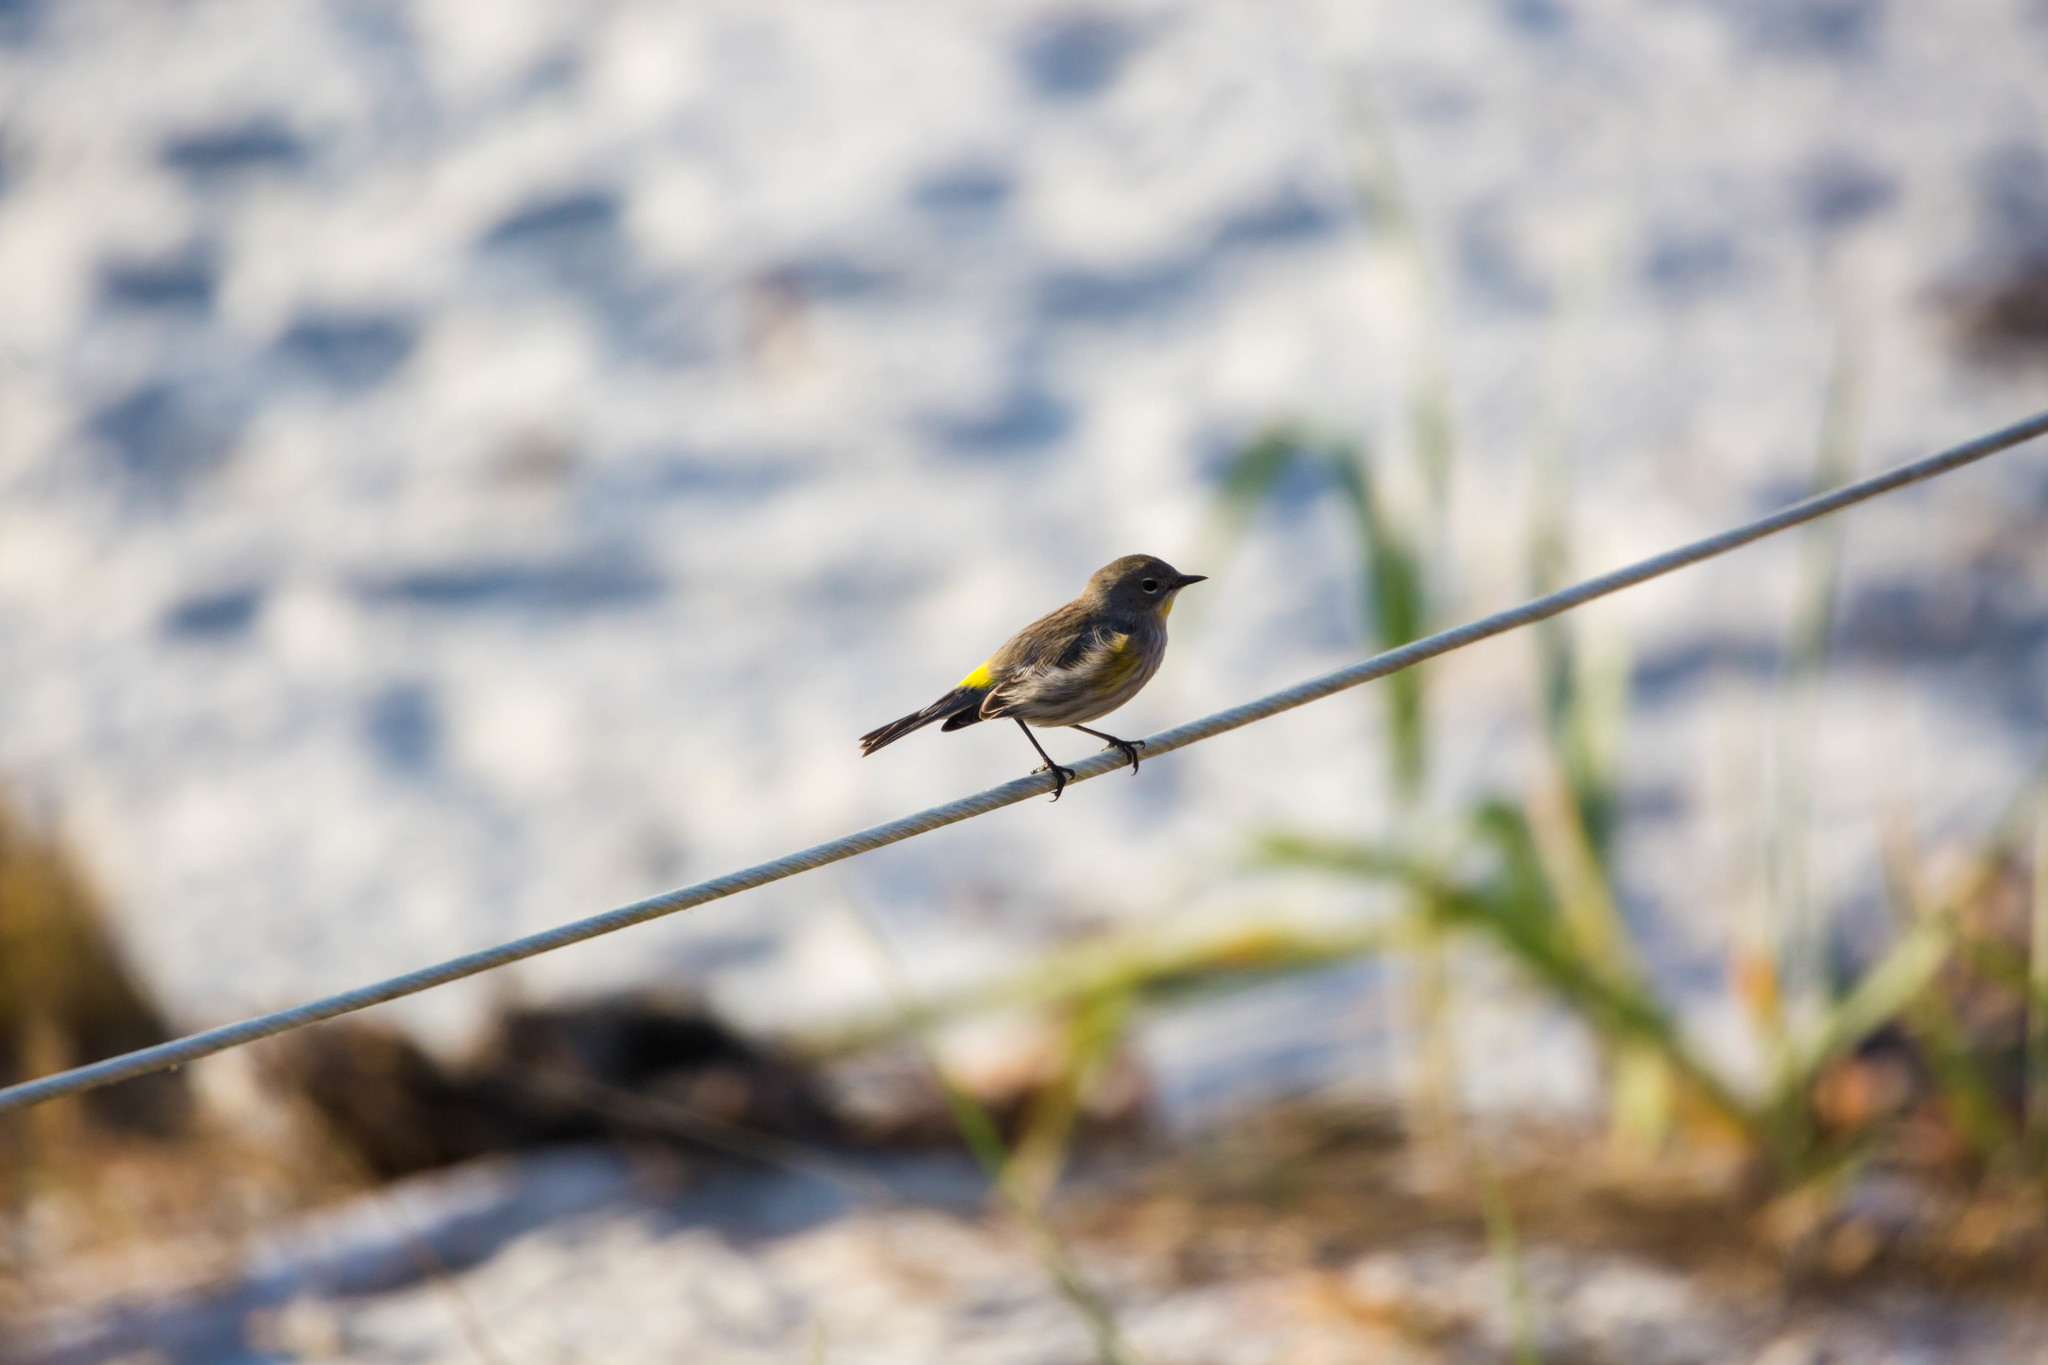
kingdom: Animalia
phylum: Chordata
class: Aves
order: Passeriformes
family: Parulidae
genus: Setophaga
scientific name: Setophaga auduboni
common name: Audubon's warbler
